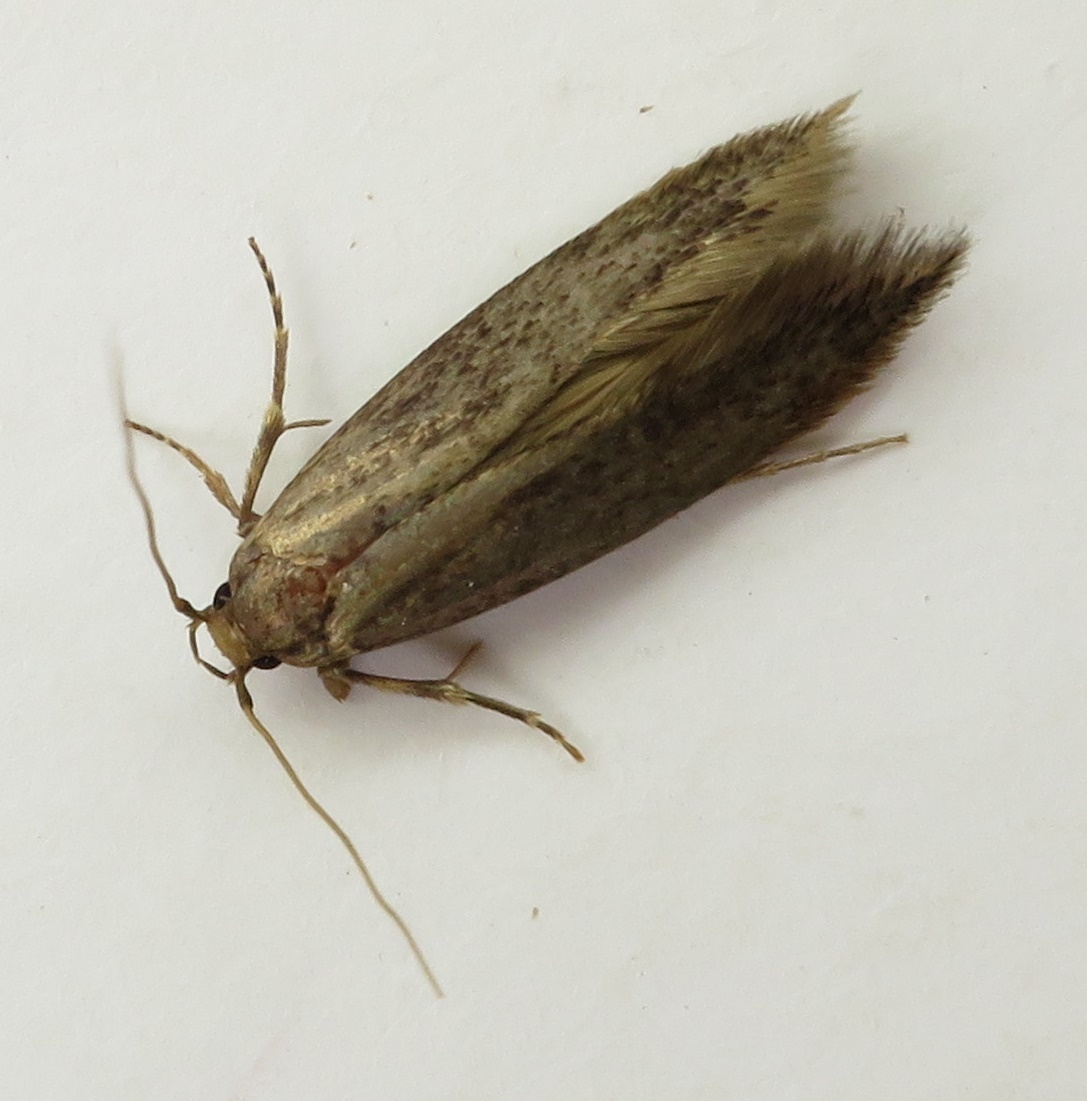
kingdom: Animalia
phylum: Arthropoda
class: Insecta
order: Lepidoptera
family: Tineidae
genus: Opogona
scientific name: Opogona omoscopa
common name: Moth
